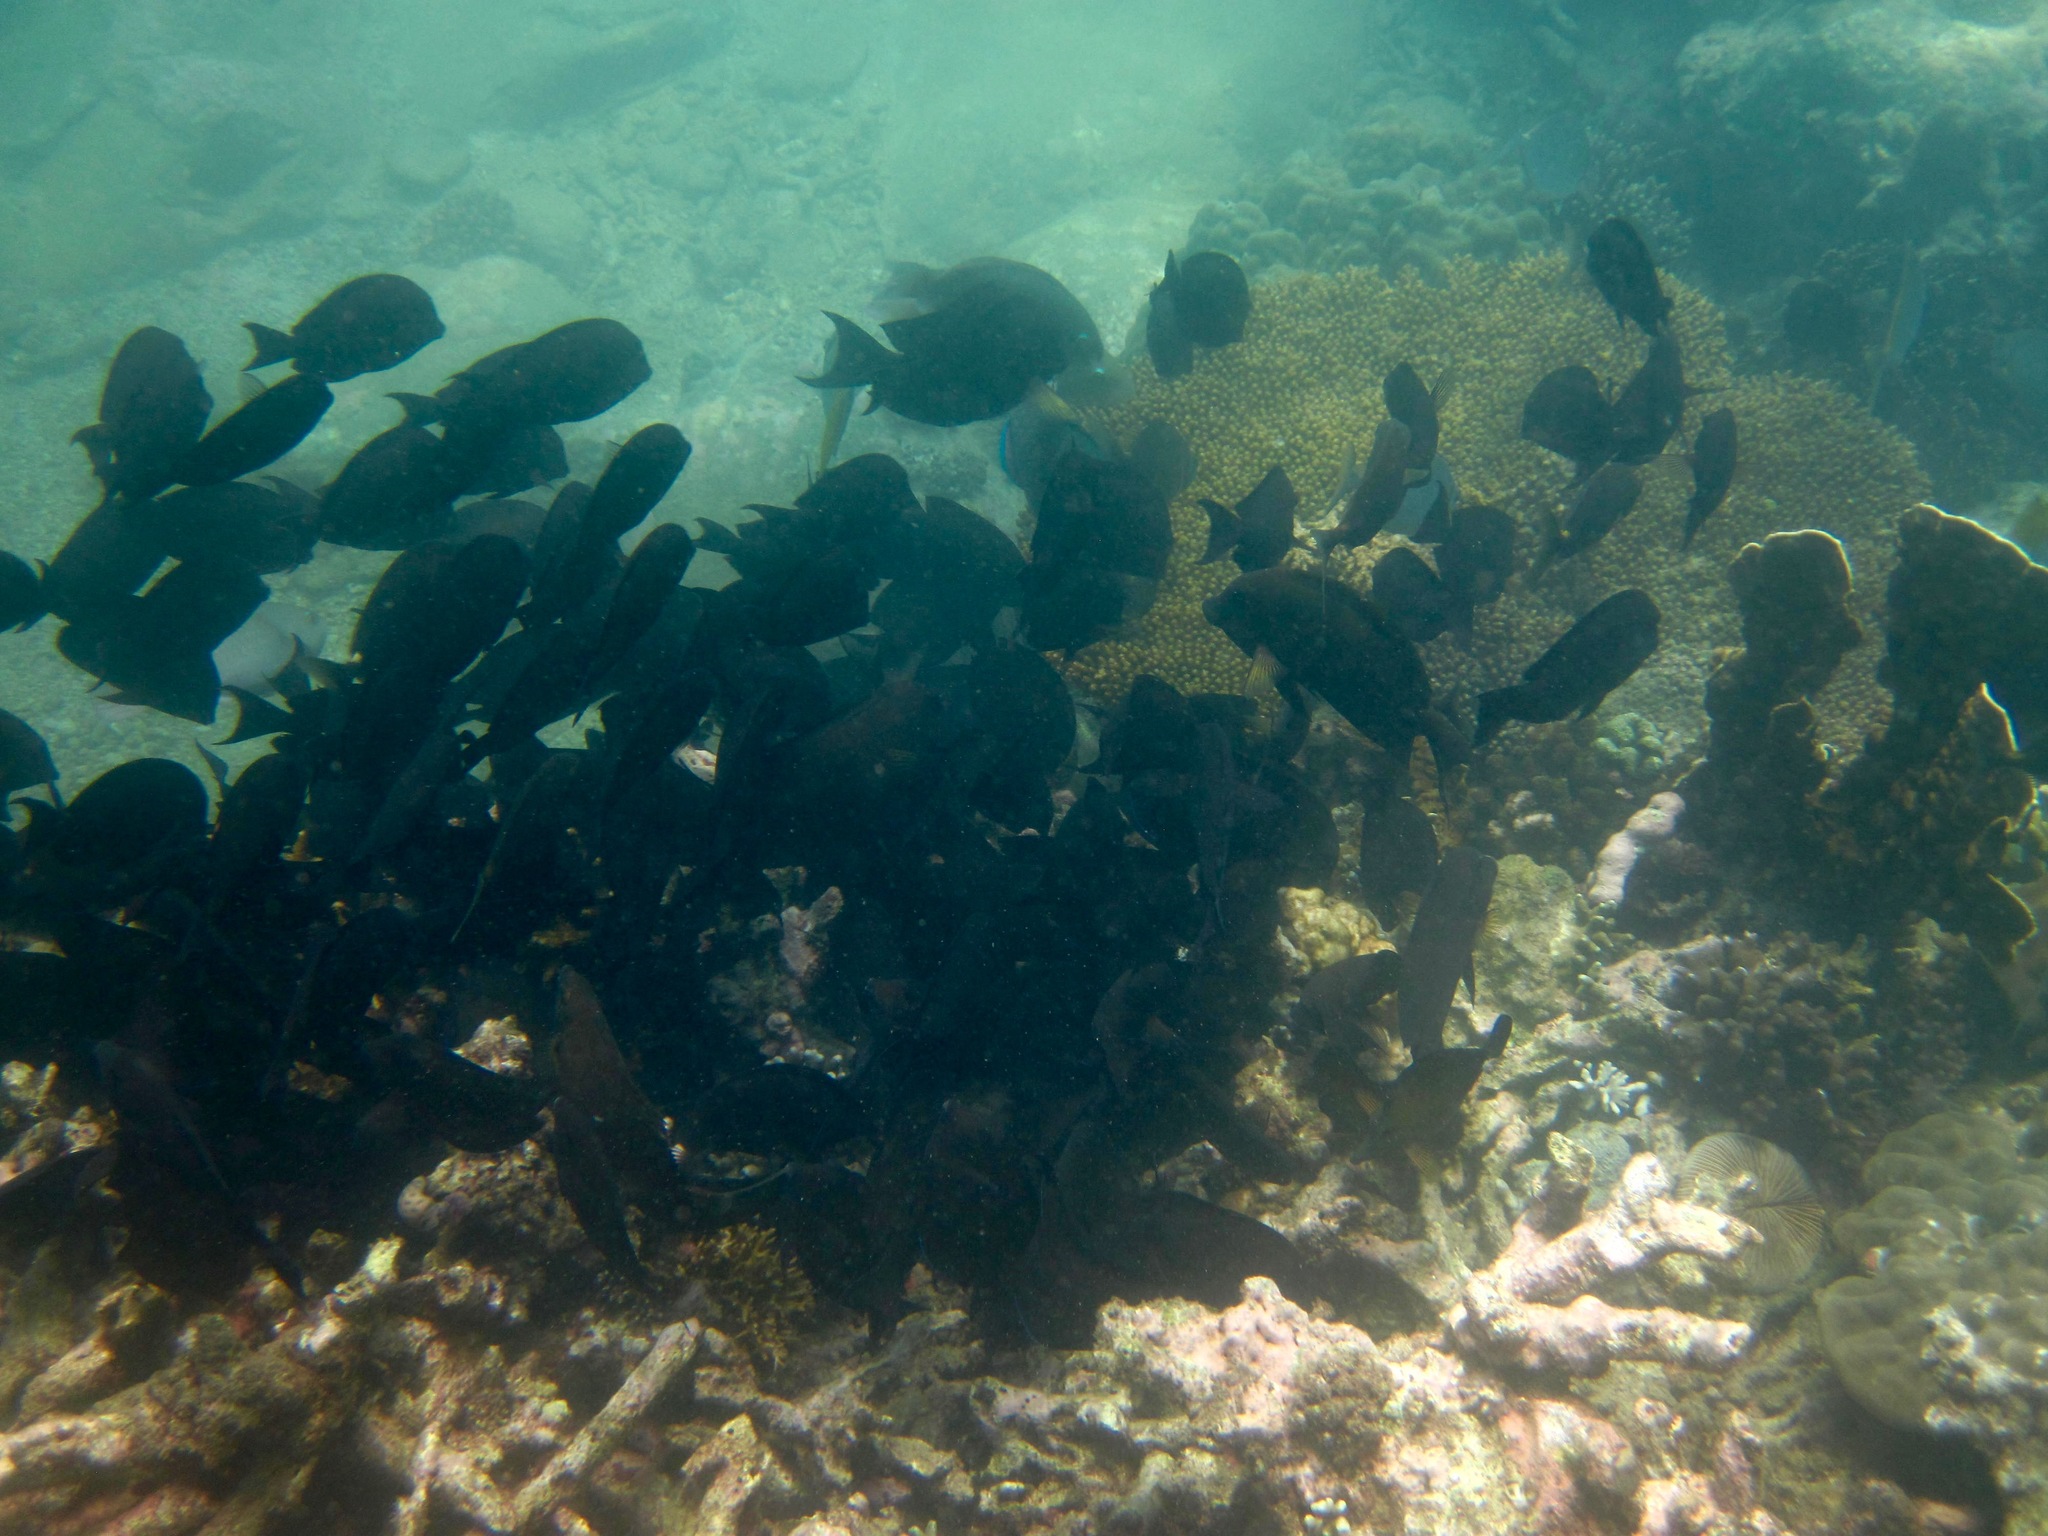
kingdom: Animalia
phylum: Chordata
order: Perciformes
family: Acanthuridae
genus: Ctenochaetus
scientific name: Ctenochaetus striatus
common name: Bristle-toothed surgeonfish
